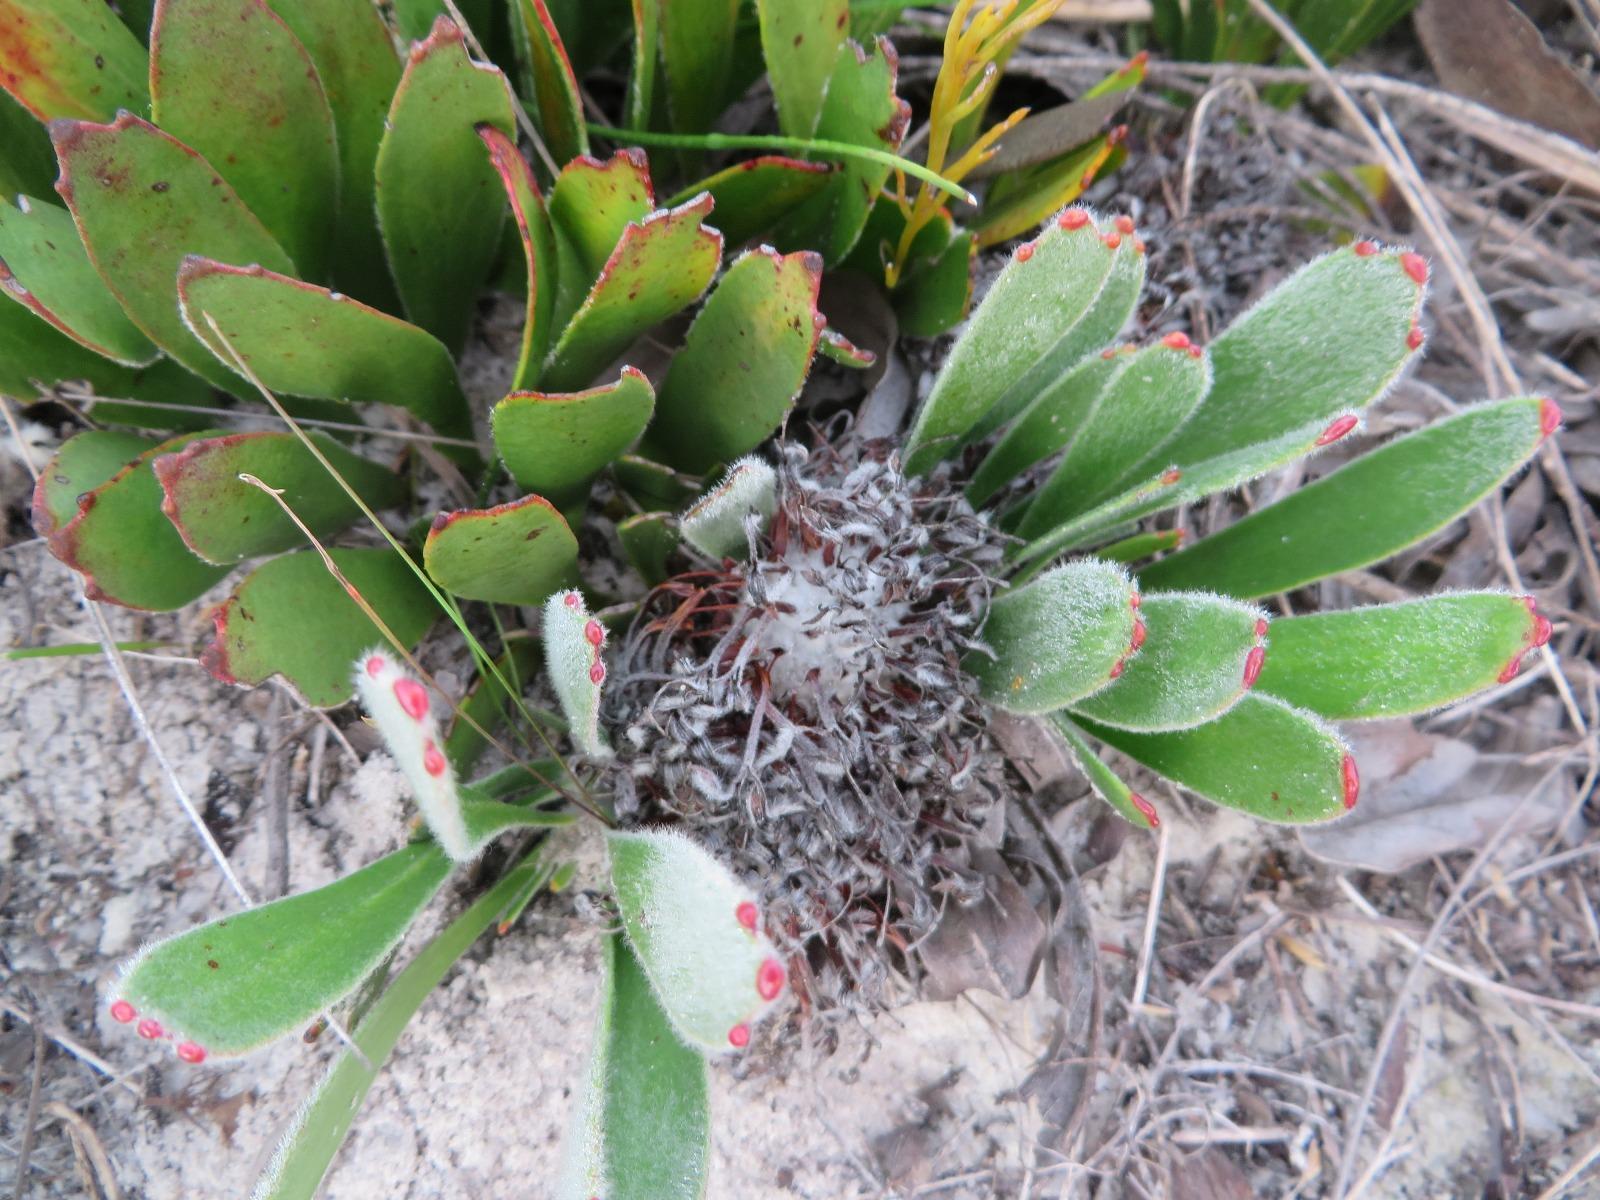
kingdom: Plantae
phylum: Tracheophyta
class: Magnoliopsida
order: Proteales
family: Proteaceae
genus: Leucospermum
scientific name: Leucospermum hypophyllocarpodendron
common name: Snakestem pincushion
